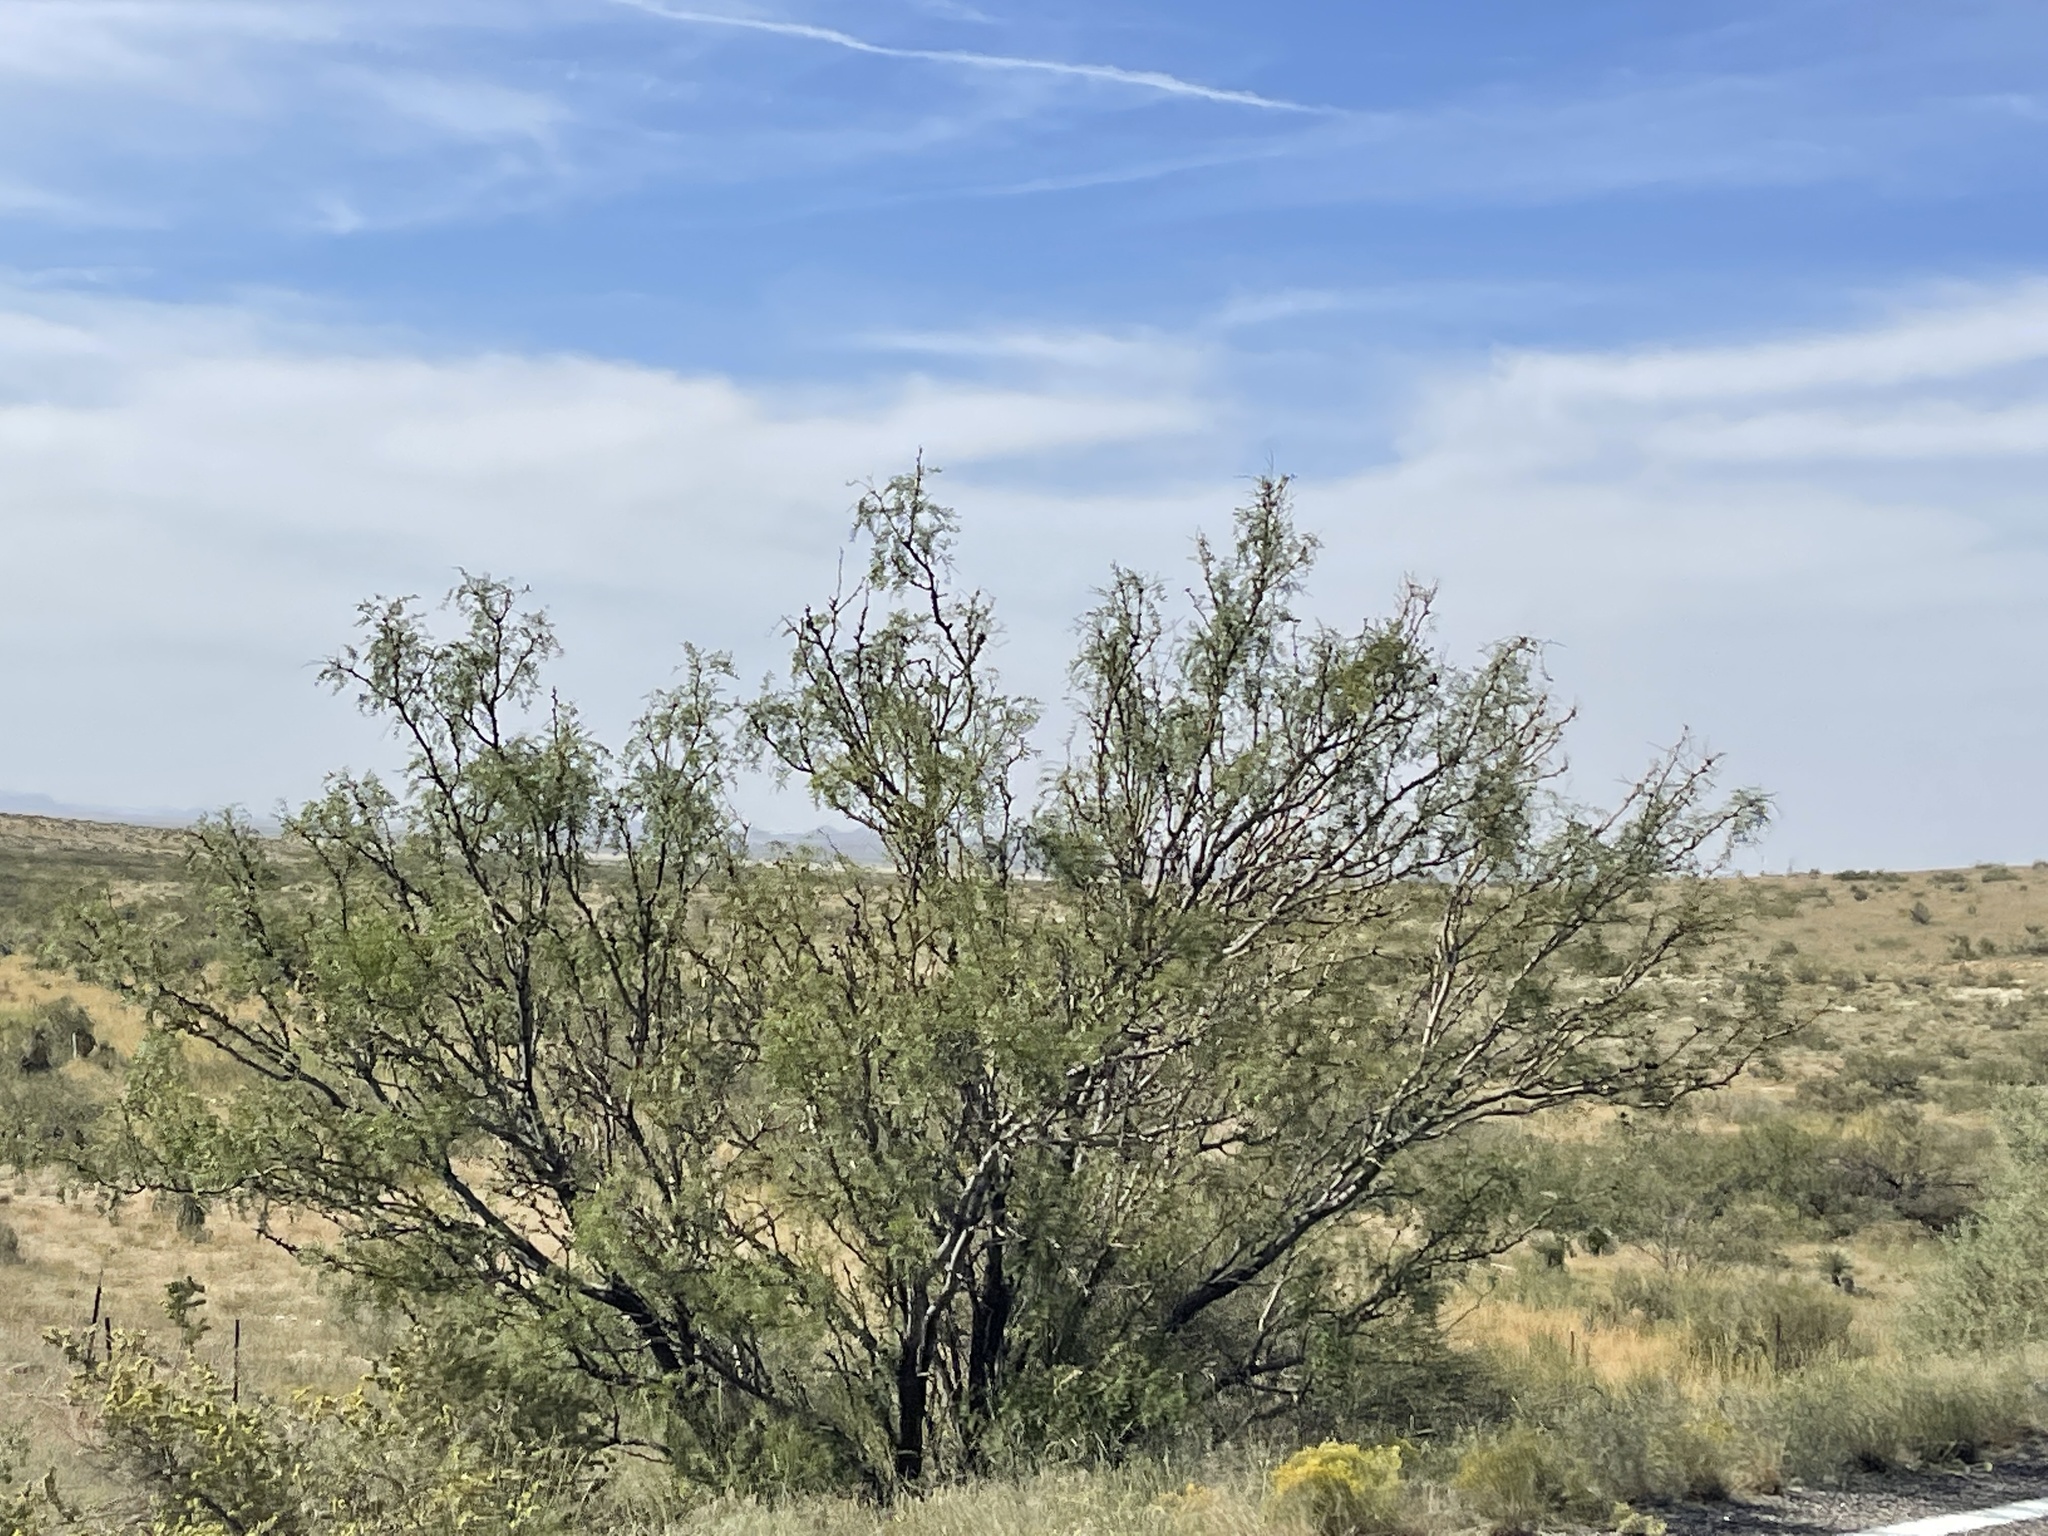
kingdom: Plantae
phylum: Tracheophyta
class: Magnoliopsida
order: Fabales
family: Fabaceae
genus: Prosopis
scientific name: Prosopis glandulosa
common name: Honey mesquite
